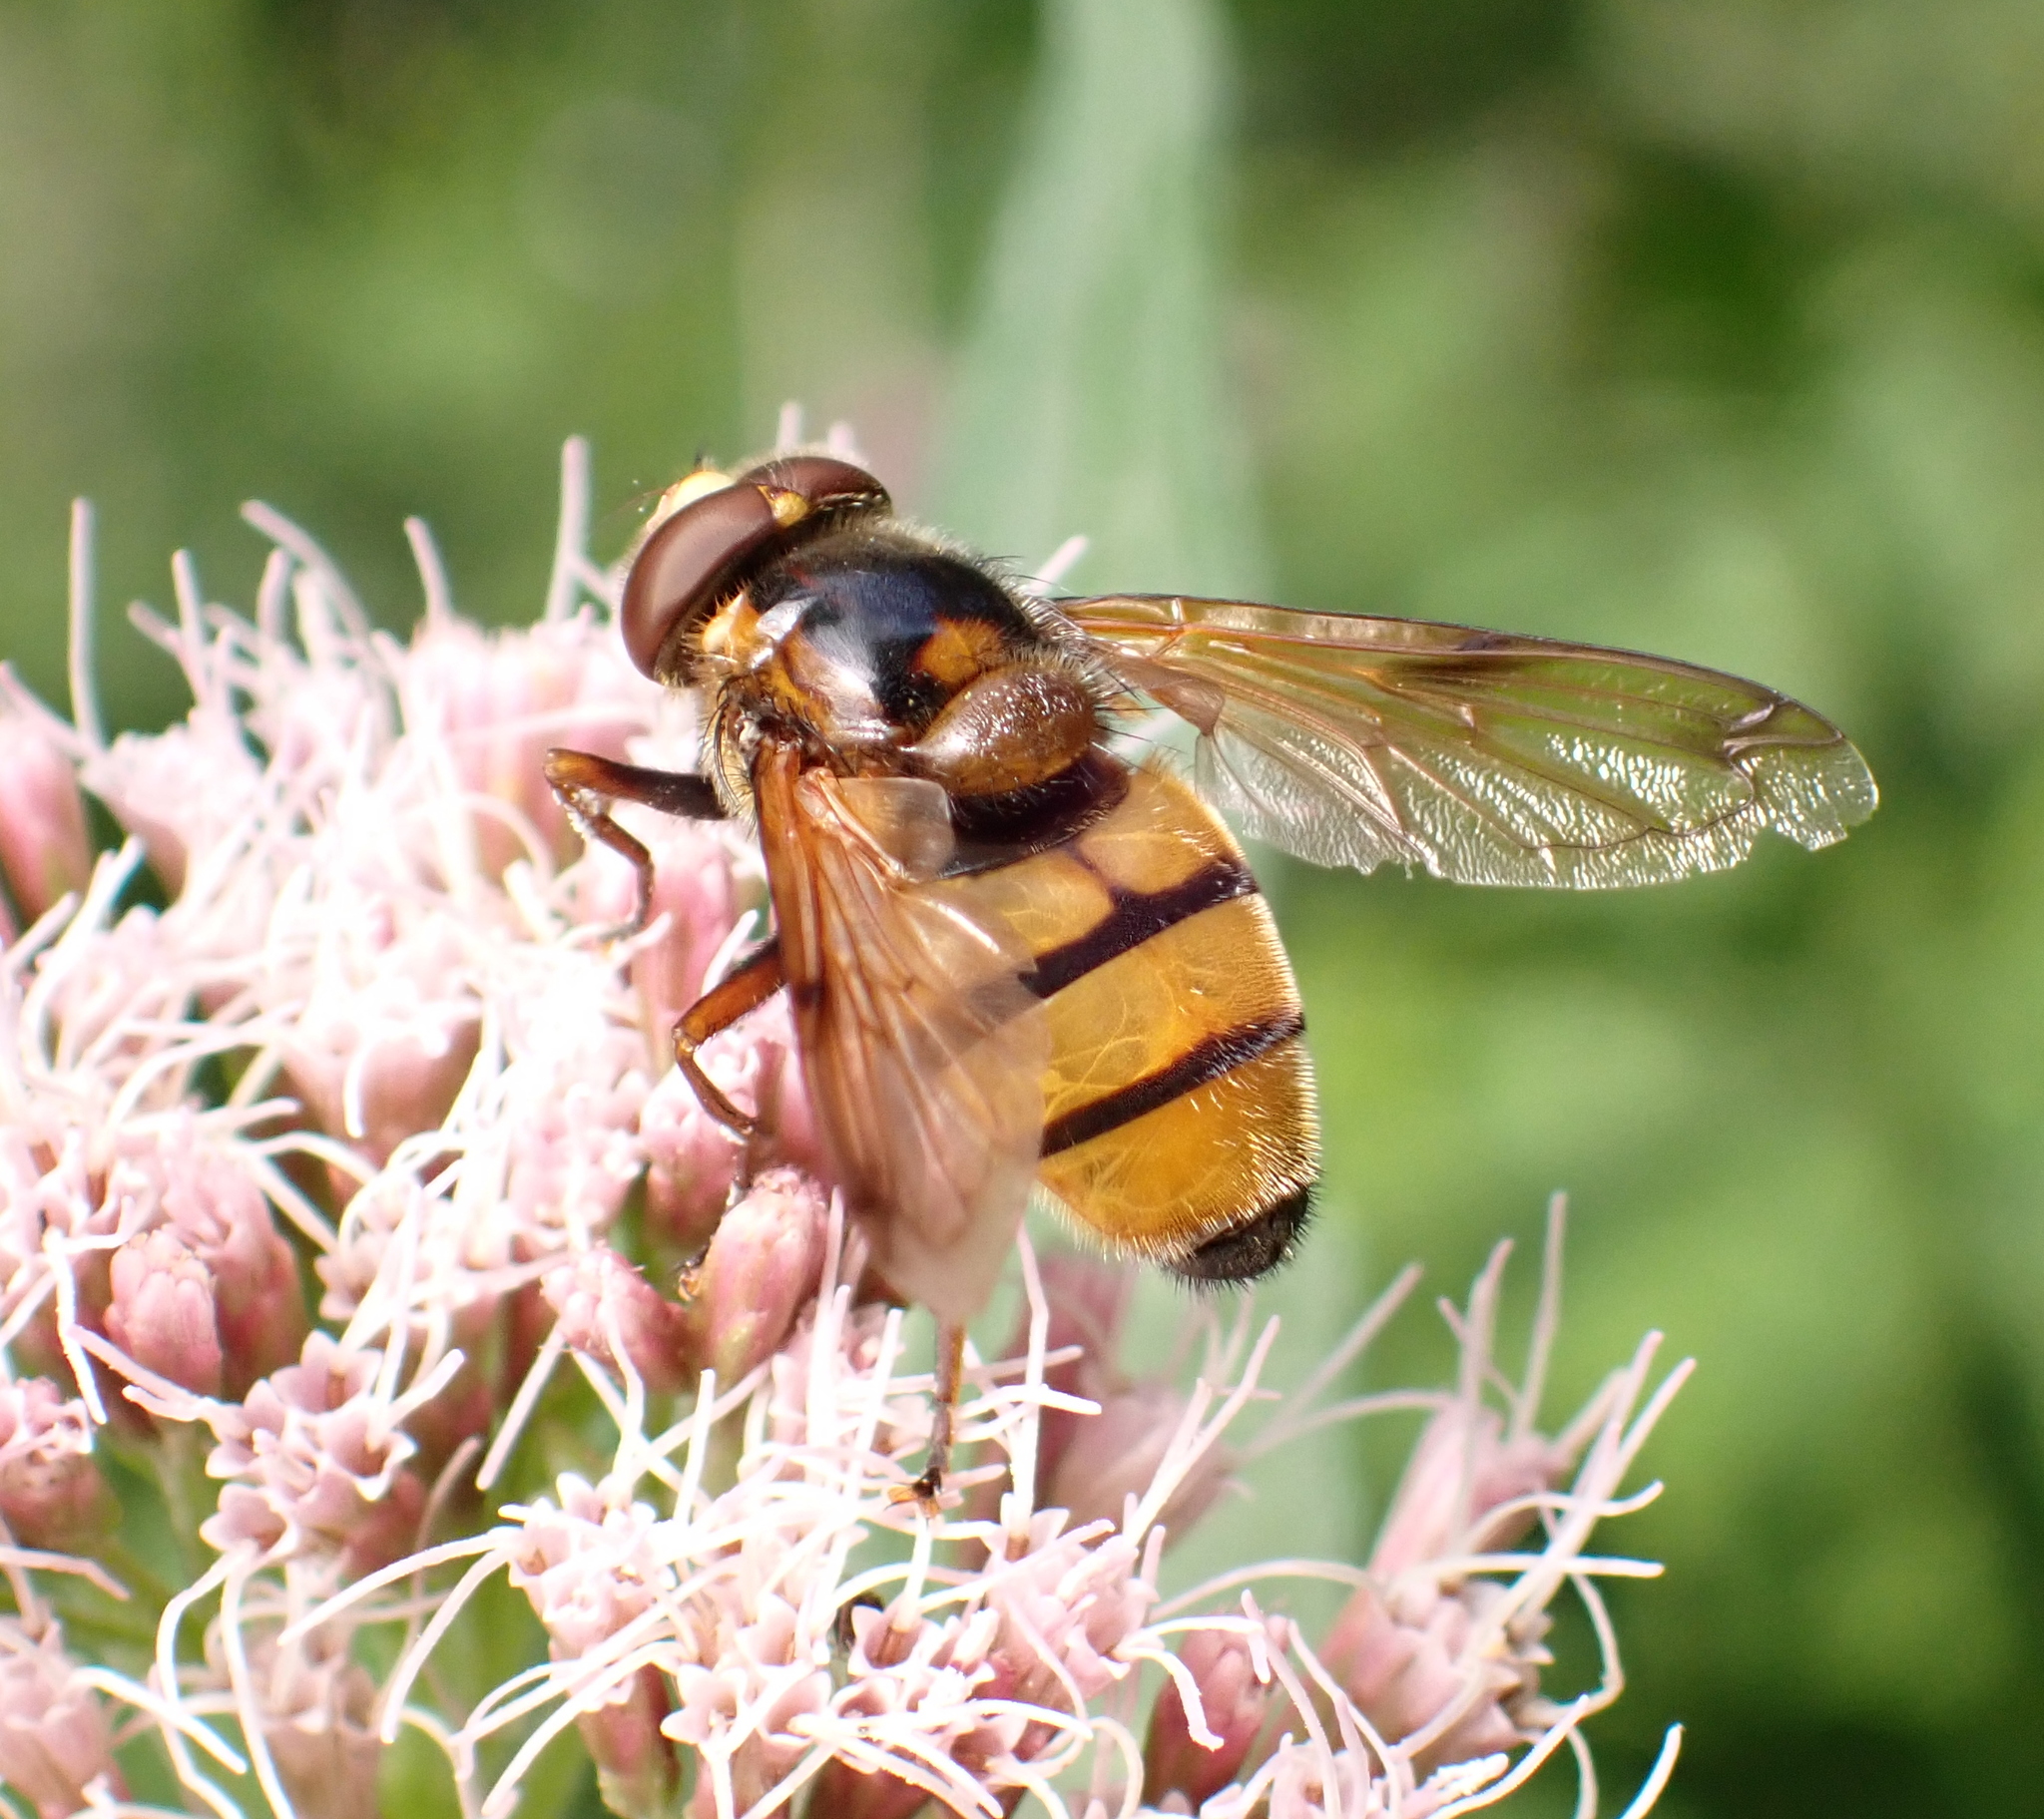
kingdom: Animalia
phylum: Arthropoda
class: Insecta
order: Diptera
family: Syrphidae
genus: Volucella
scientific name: Volucella inanis
